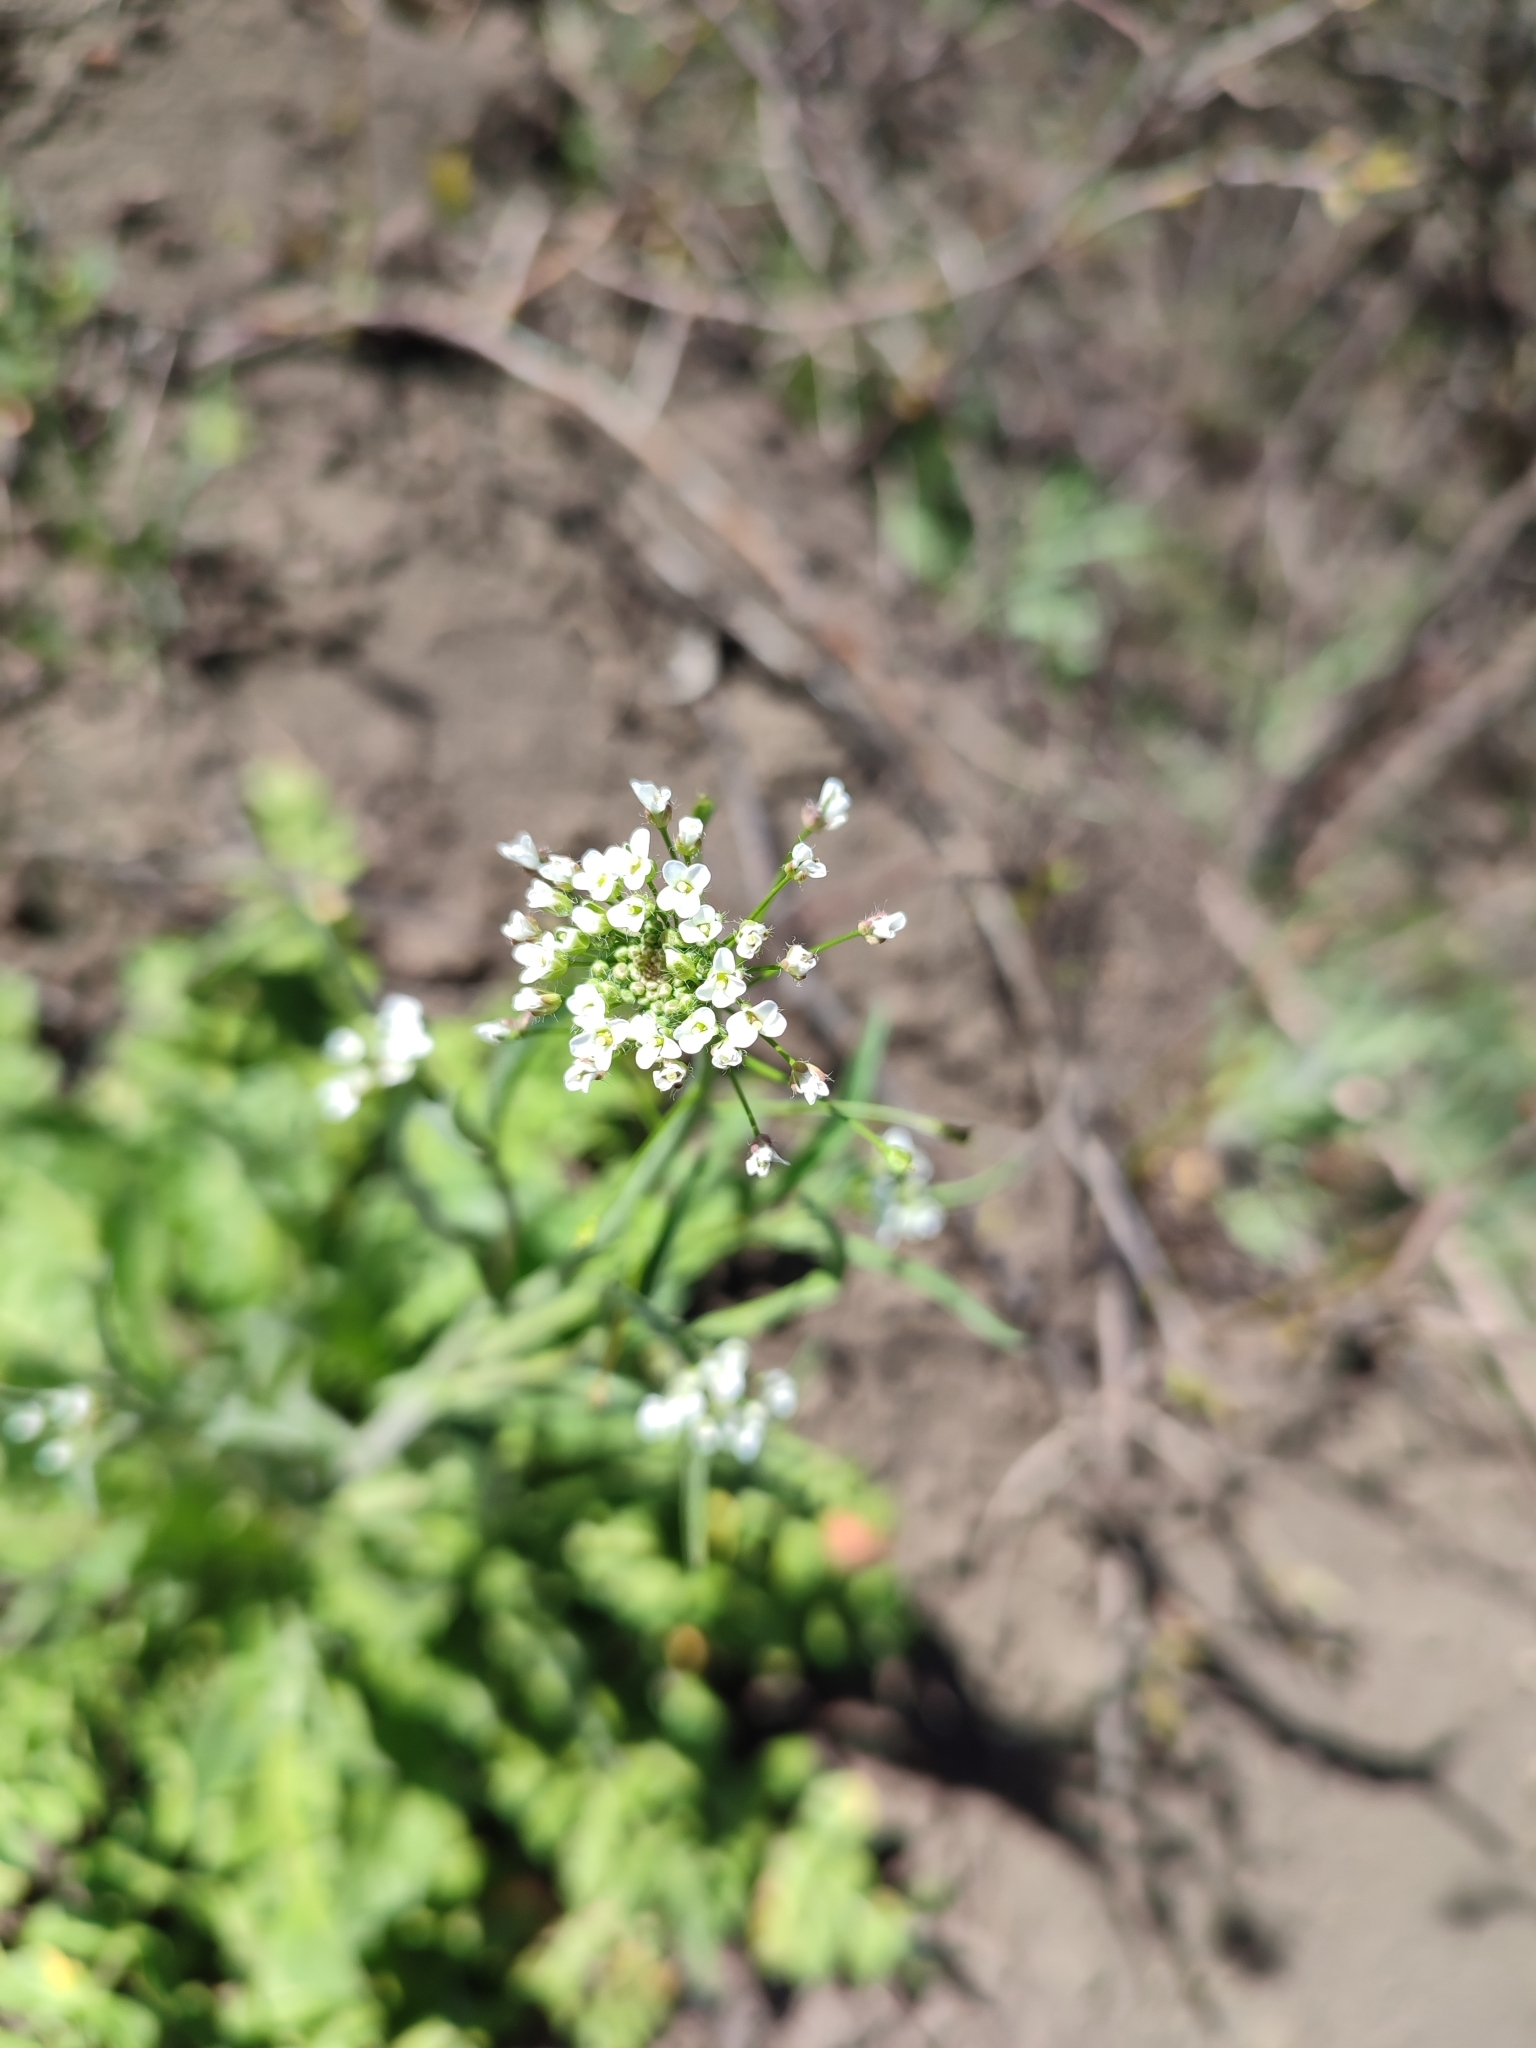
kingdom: Plantae
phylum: Tracheophyta
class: Magnoliopsida
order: Brassicales
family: Brassicaceae
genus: Capsella
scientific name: Capsella bursa-pastoris
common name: Shepherd's purse
